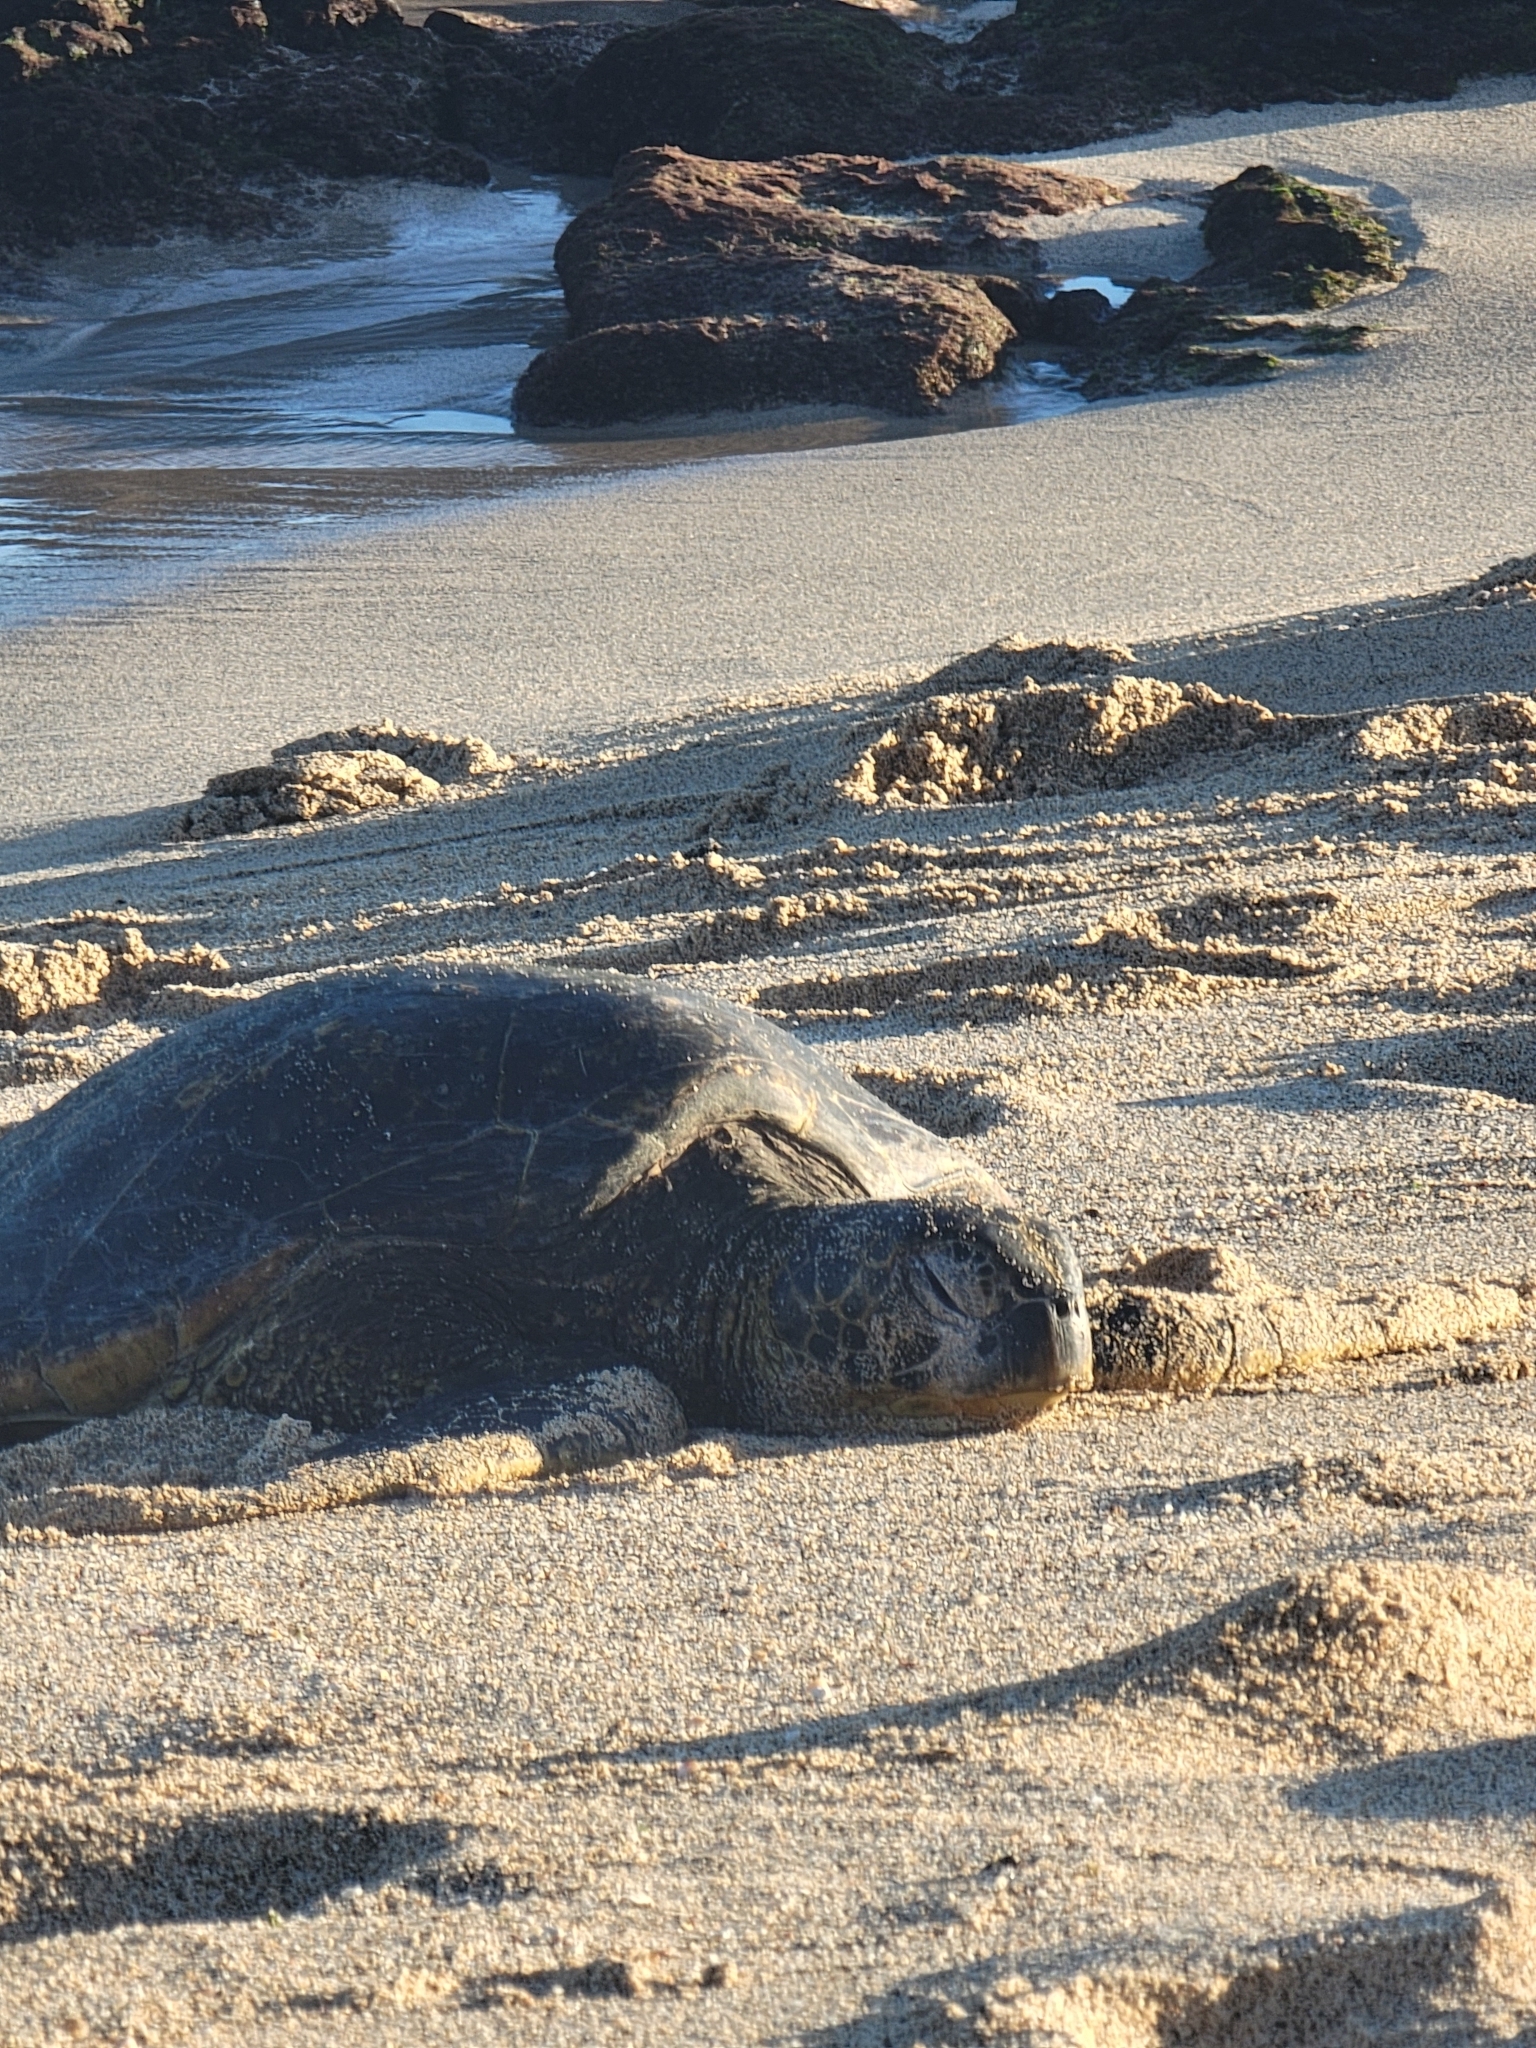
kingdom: Animalia
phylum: Chordata
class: Testudines
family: Cheloniidae
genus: Chelonia
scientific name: Chelonia mydas
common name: Green turtle
